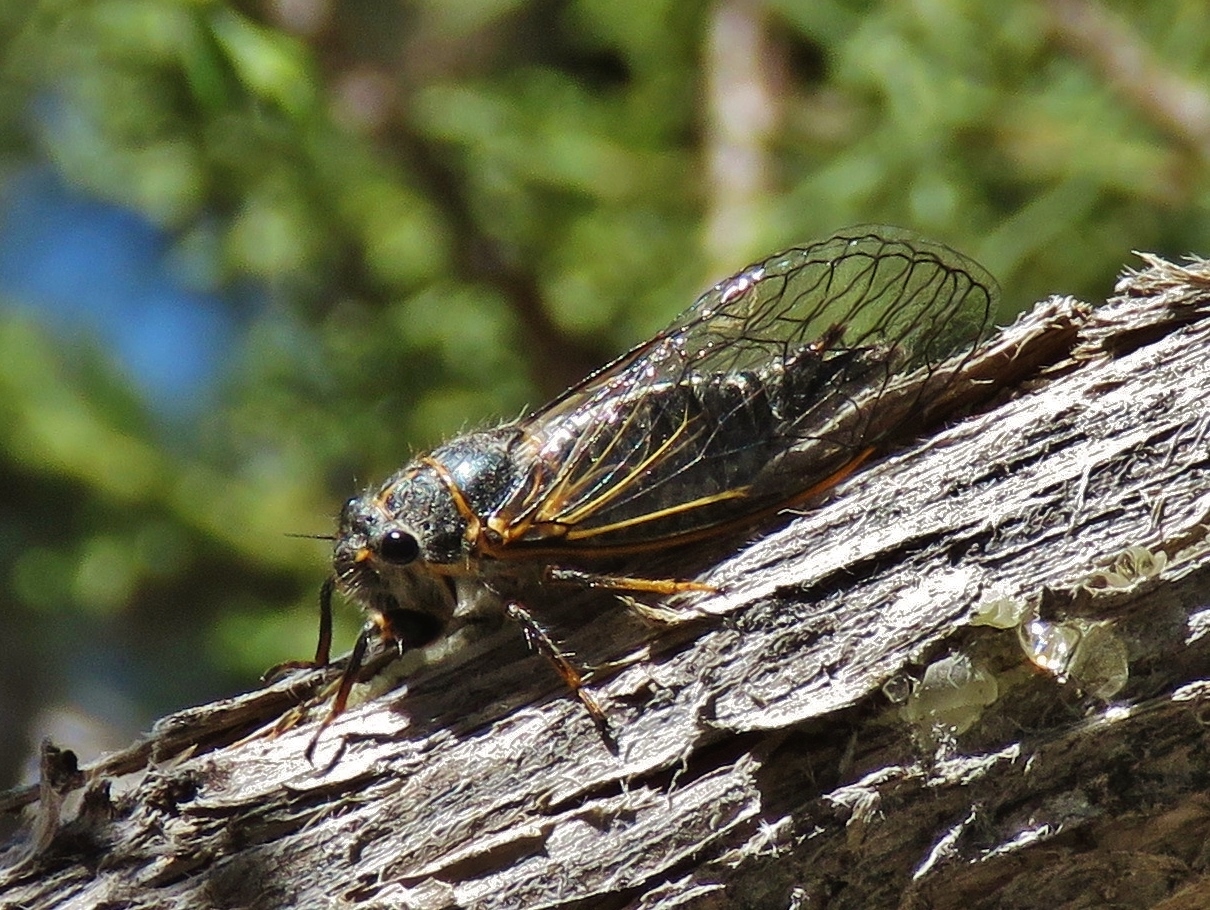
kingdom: Animalia
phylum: Arthropoda
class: Insecta
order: Hemiptera
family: Cicadidae
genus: Platypedia
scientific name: Platypedia putnami
